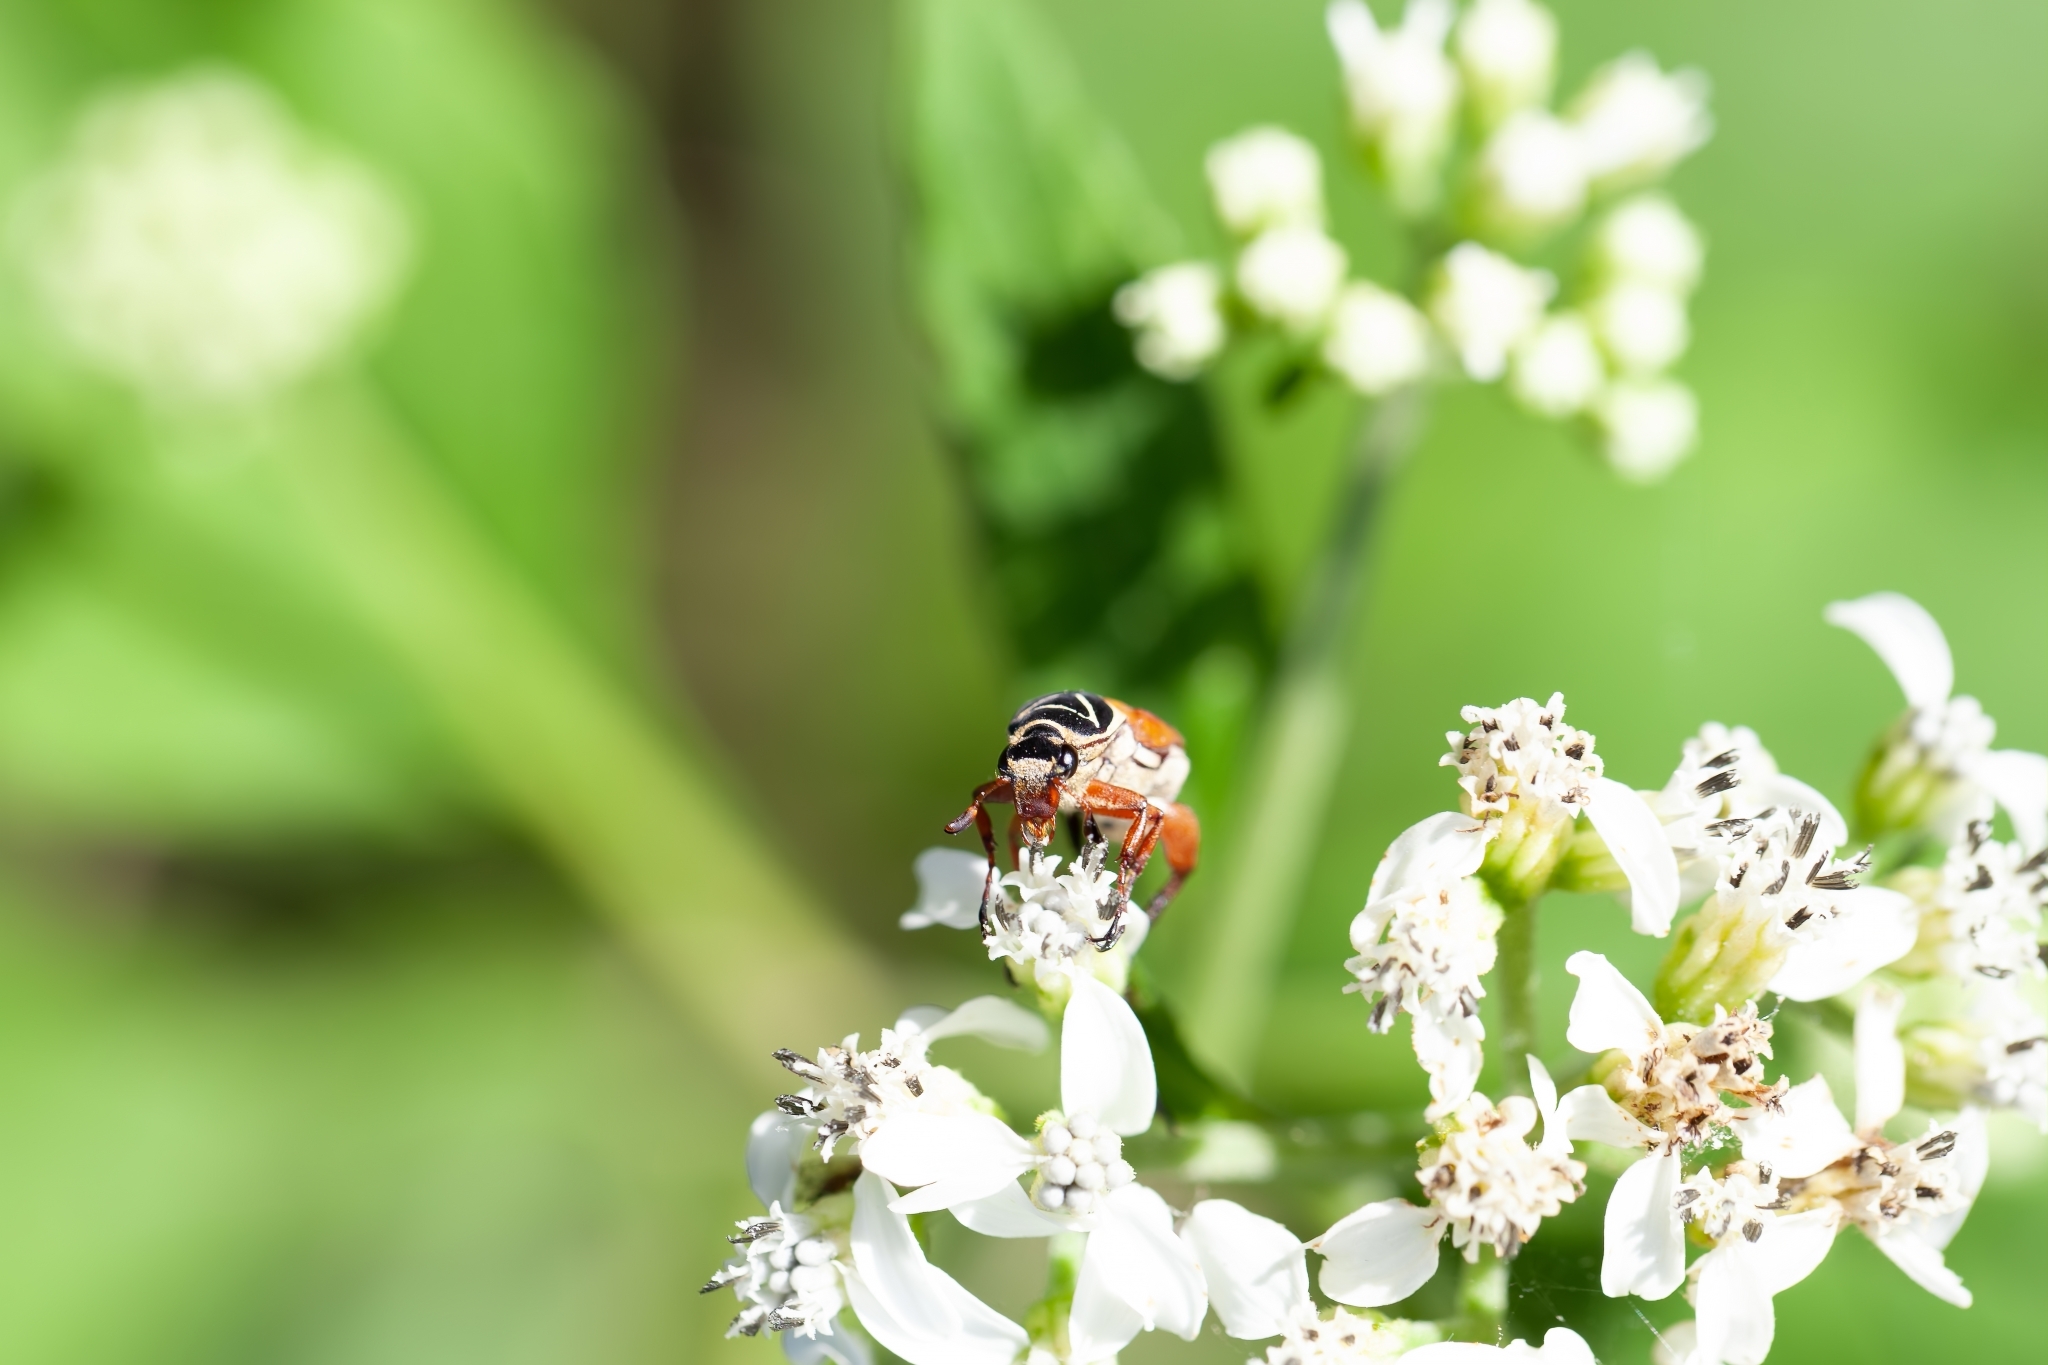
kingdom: Animalia
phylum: Arthropoda
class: Insecta
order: Coleoptera
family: Scarabaeidae
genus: Trigonopeltastes
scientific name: Trigonopeltastes delta
